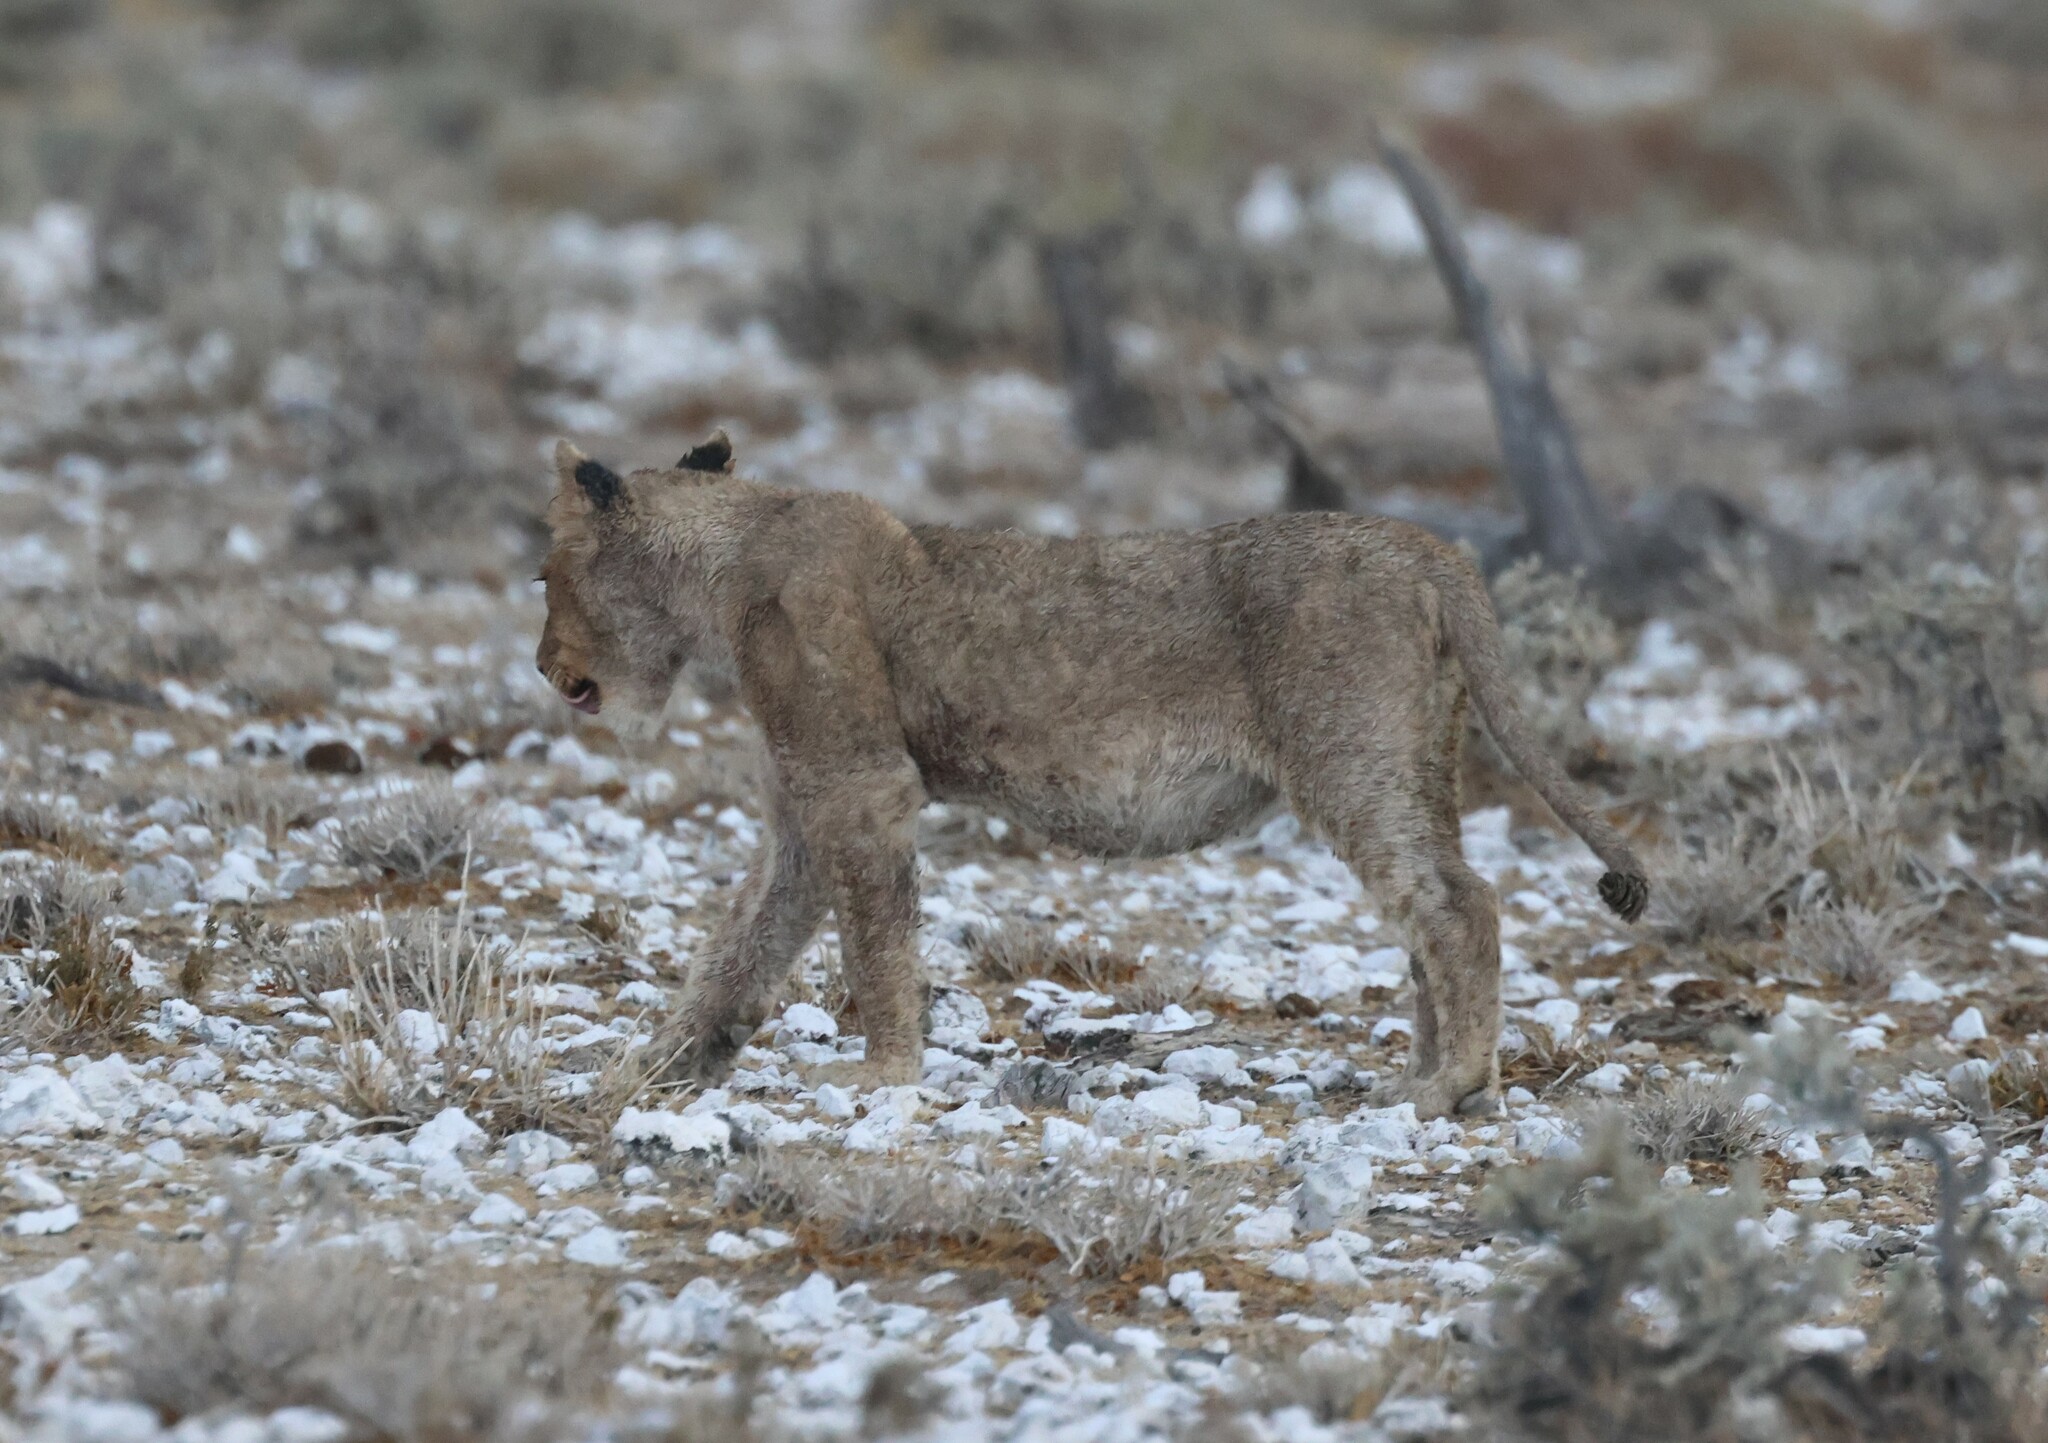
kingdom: Animalia
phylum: Chordata
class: Mammalia
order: Carnivora
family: Felidae
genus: Panthera
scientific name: Panthera leo
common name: Lion
